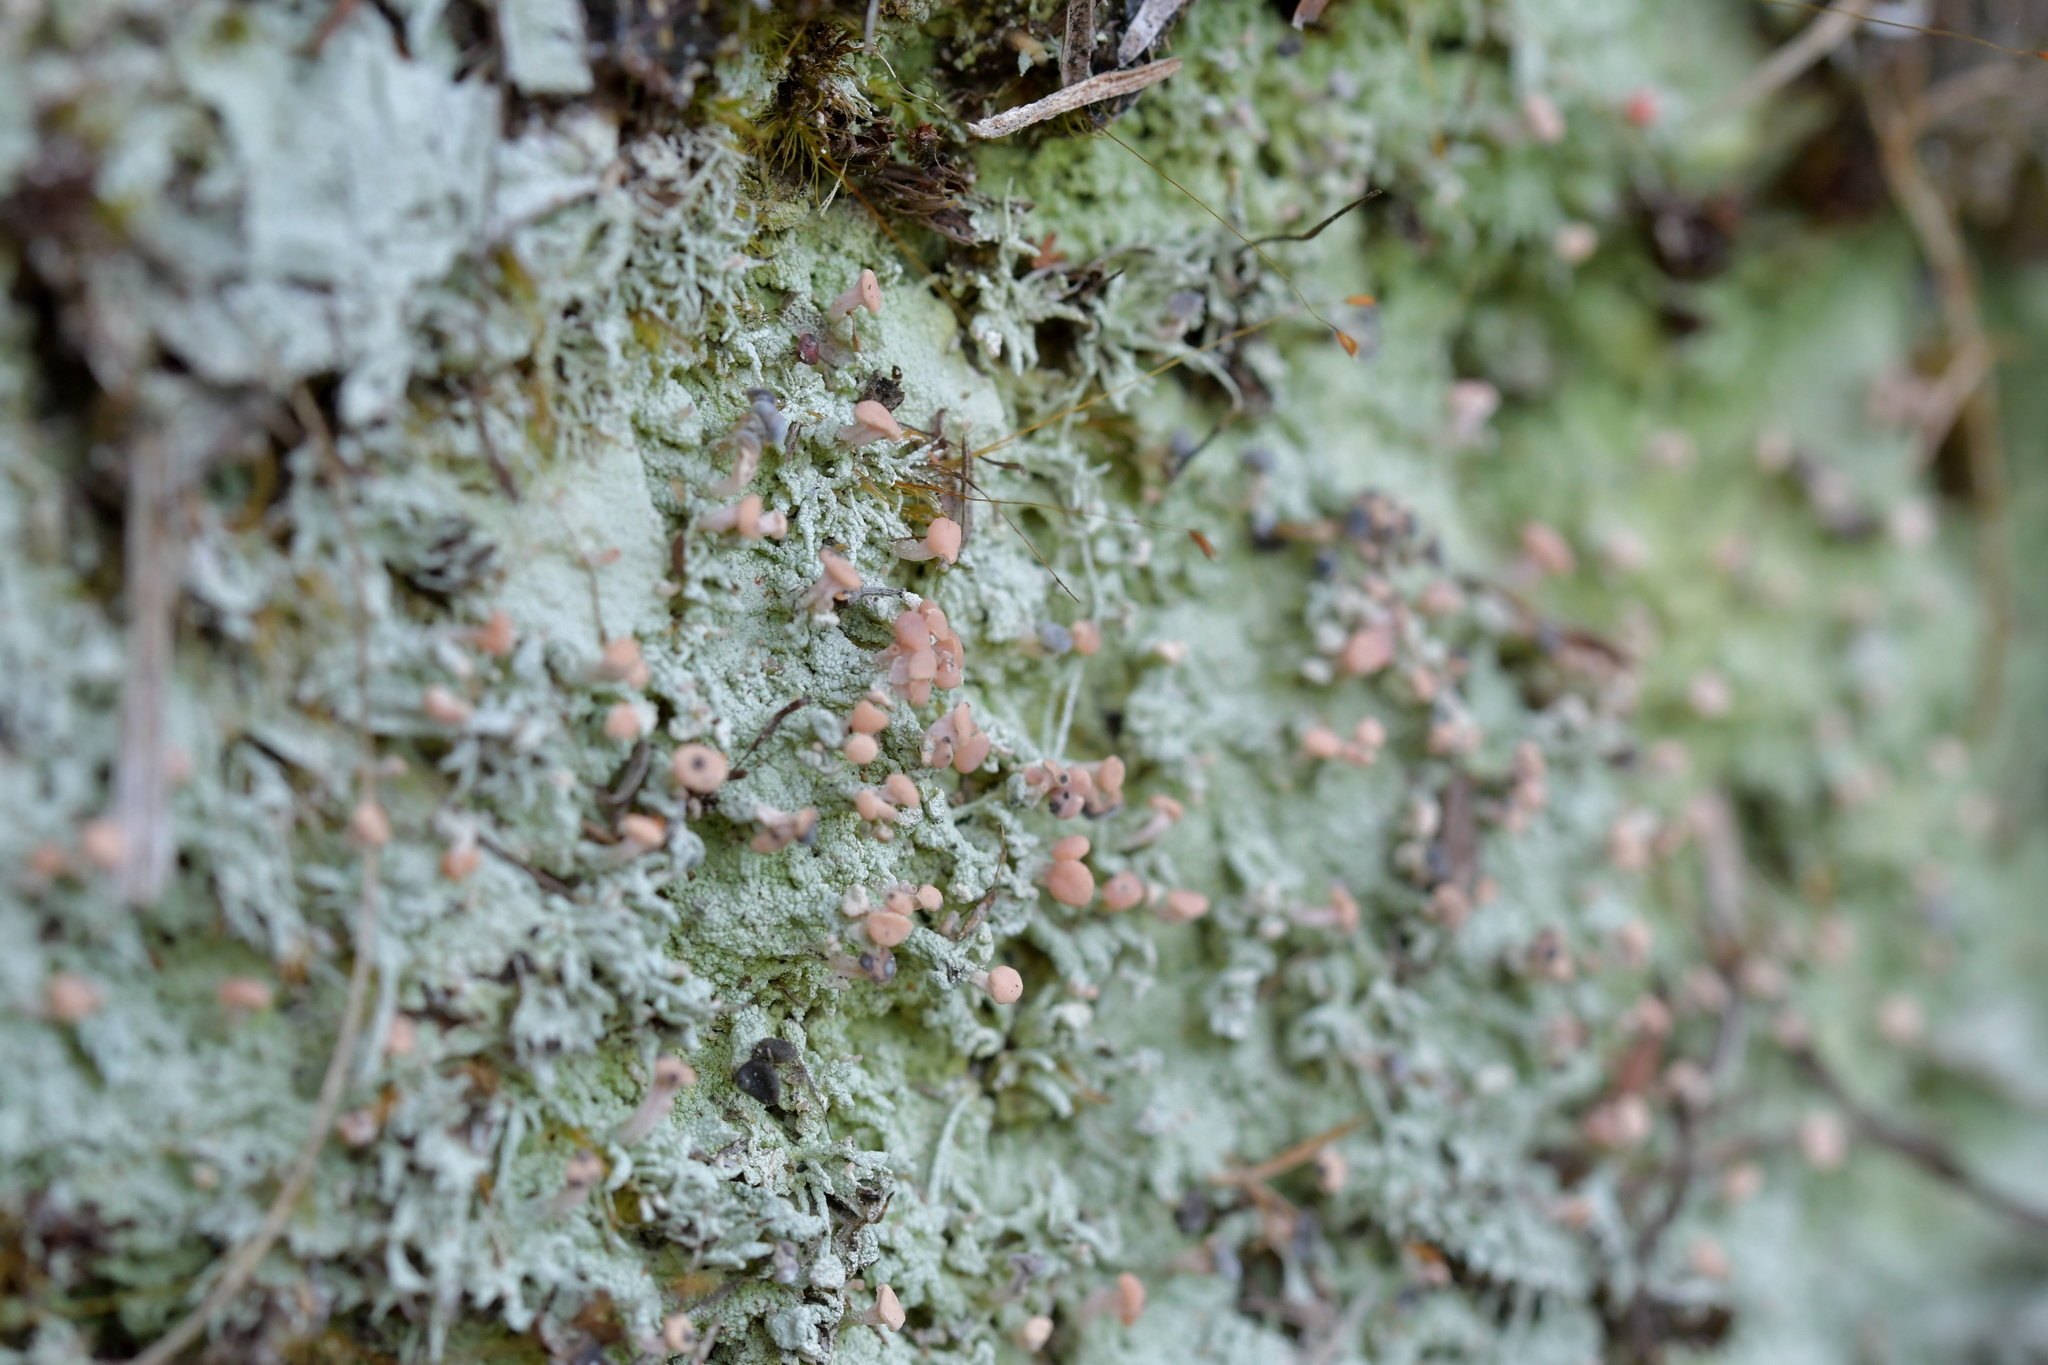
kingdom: Fungi
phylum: Ascomycota
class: Lecanoromycetes
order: Baeomycetales
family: Baeomycetaceae
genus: Baeomyces
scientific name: Baeomyces heteromorphus
